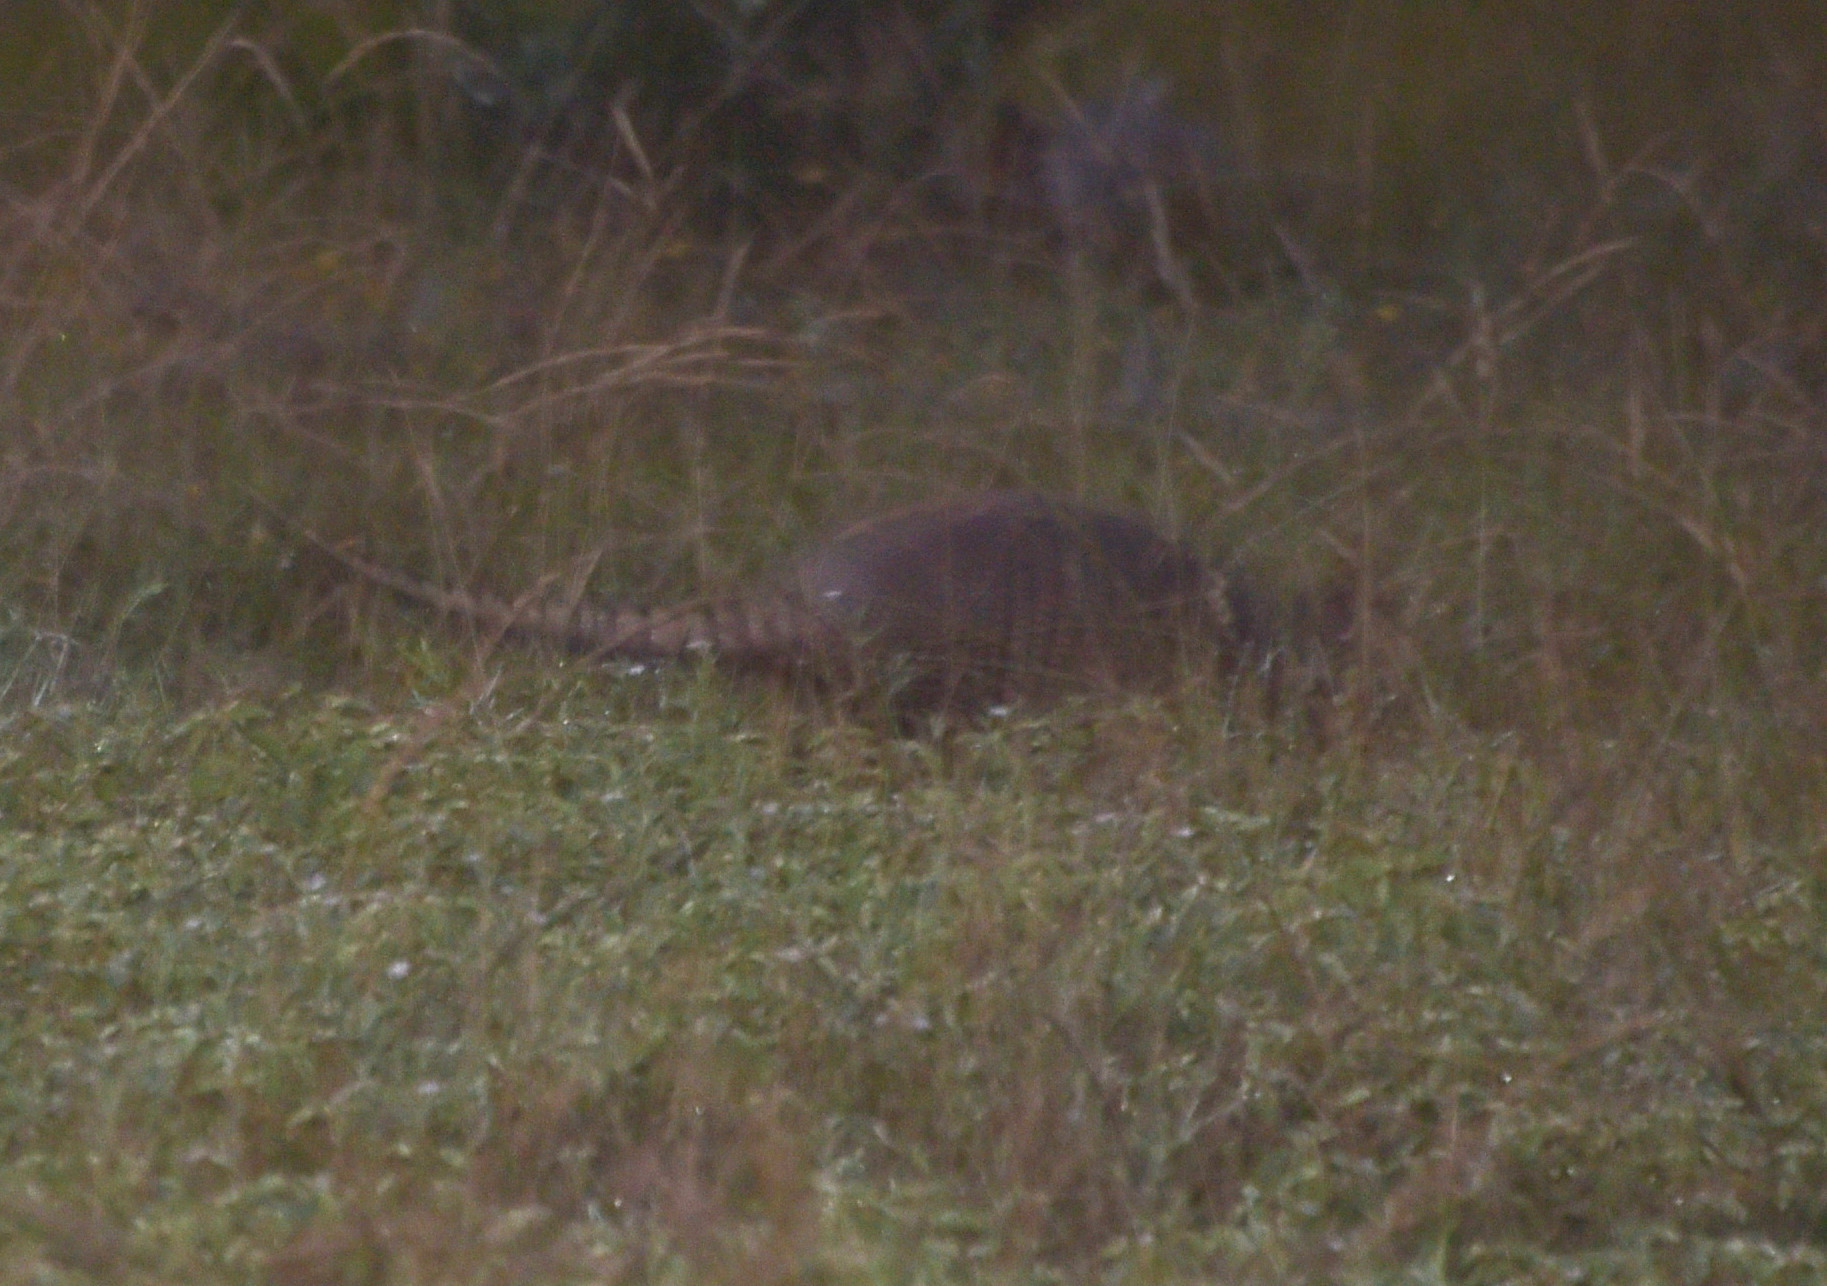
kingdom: Animalia
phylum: Chordata
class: Mammalia
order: Cingulata
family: Dasypodidae
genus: Dasypus
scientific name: Dasypus novemcinctus
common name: Nine-banded armadillo
